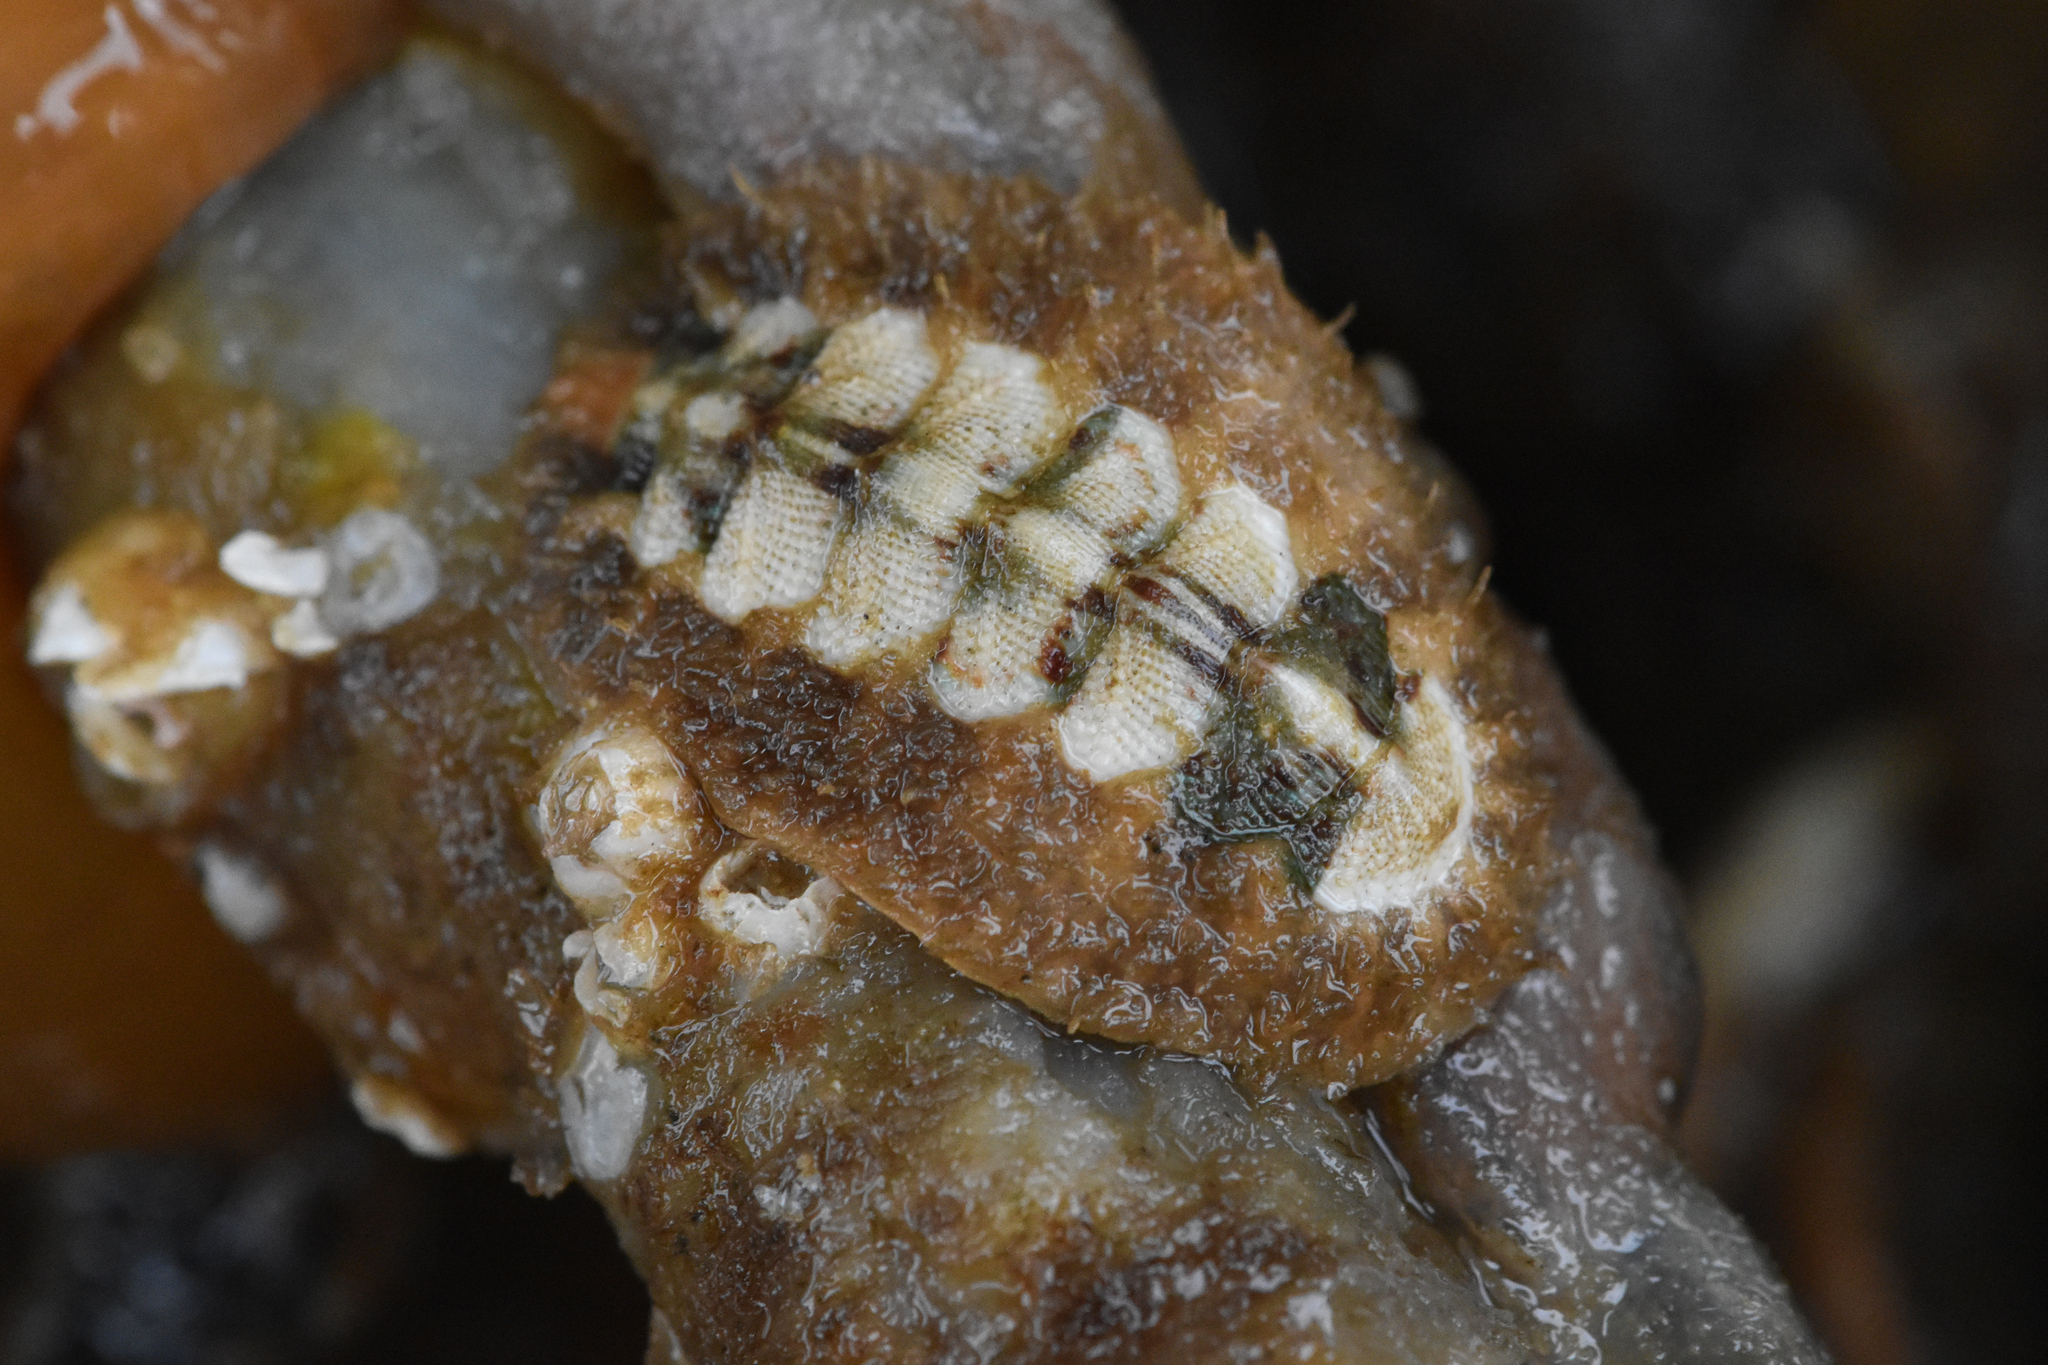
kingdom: Animalia
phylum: Mollusca
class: Polyplacophora
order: Chitonida
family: Mopaliidae
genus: Mopalia
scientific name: Mopalia ciliata
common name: Hairy chiton
